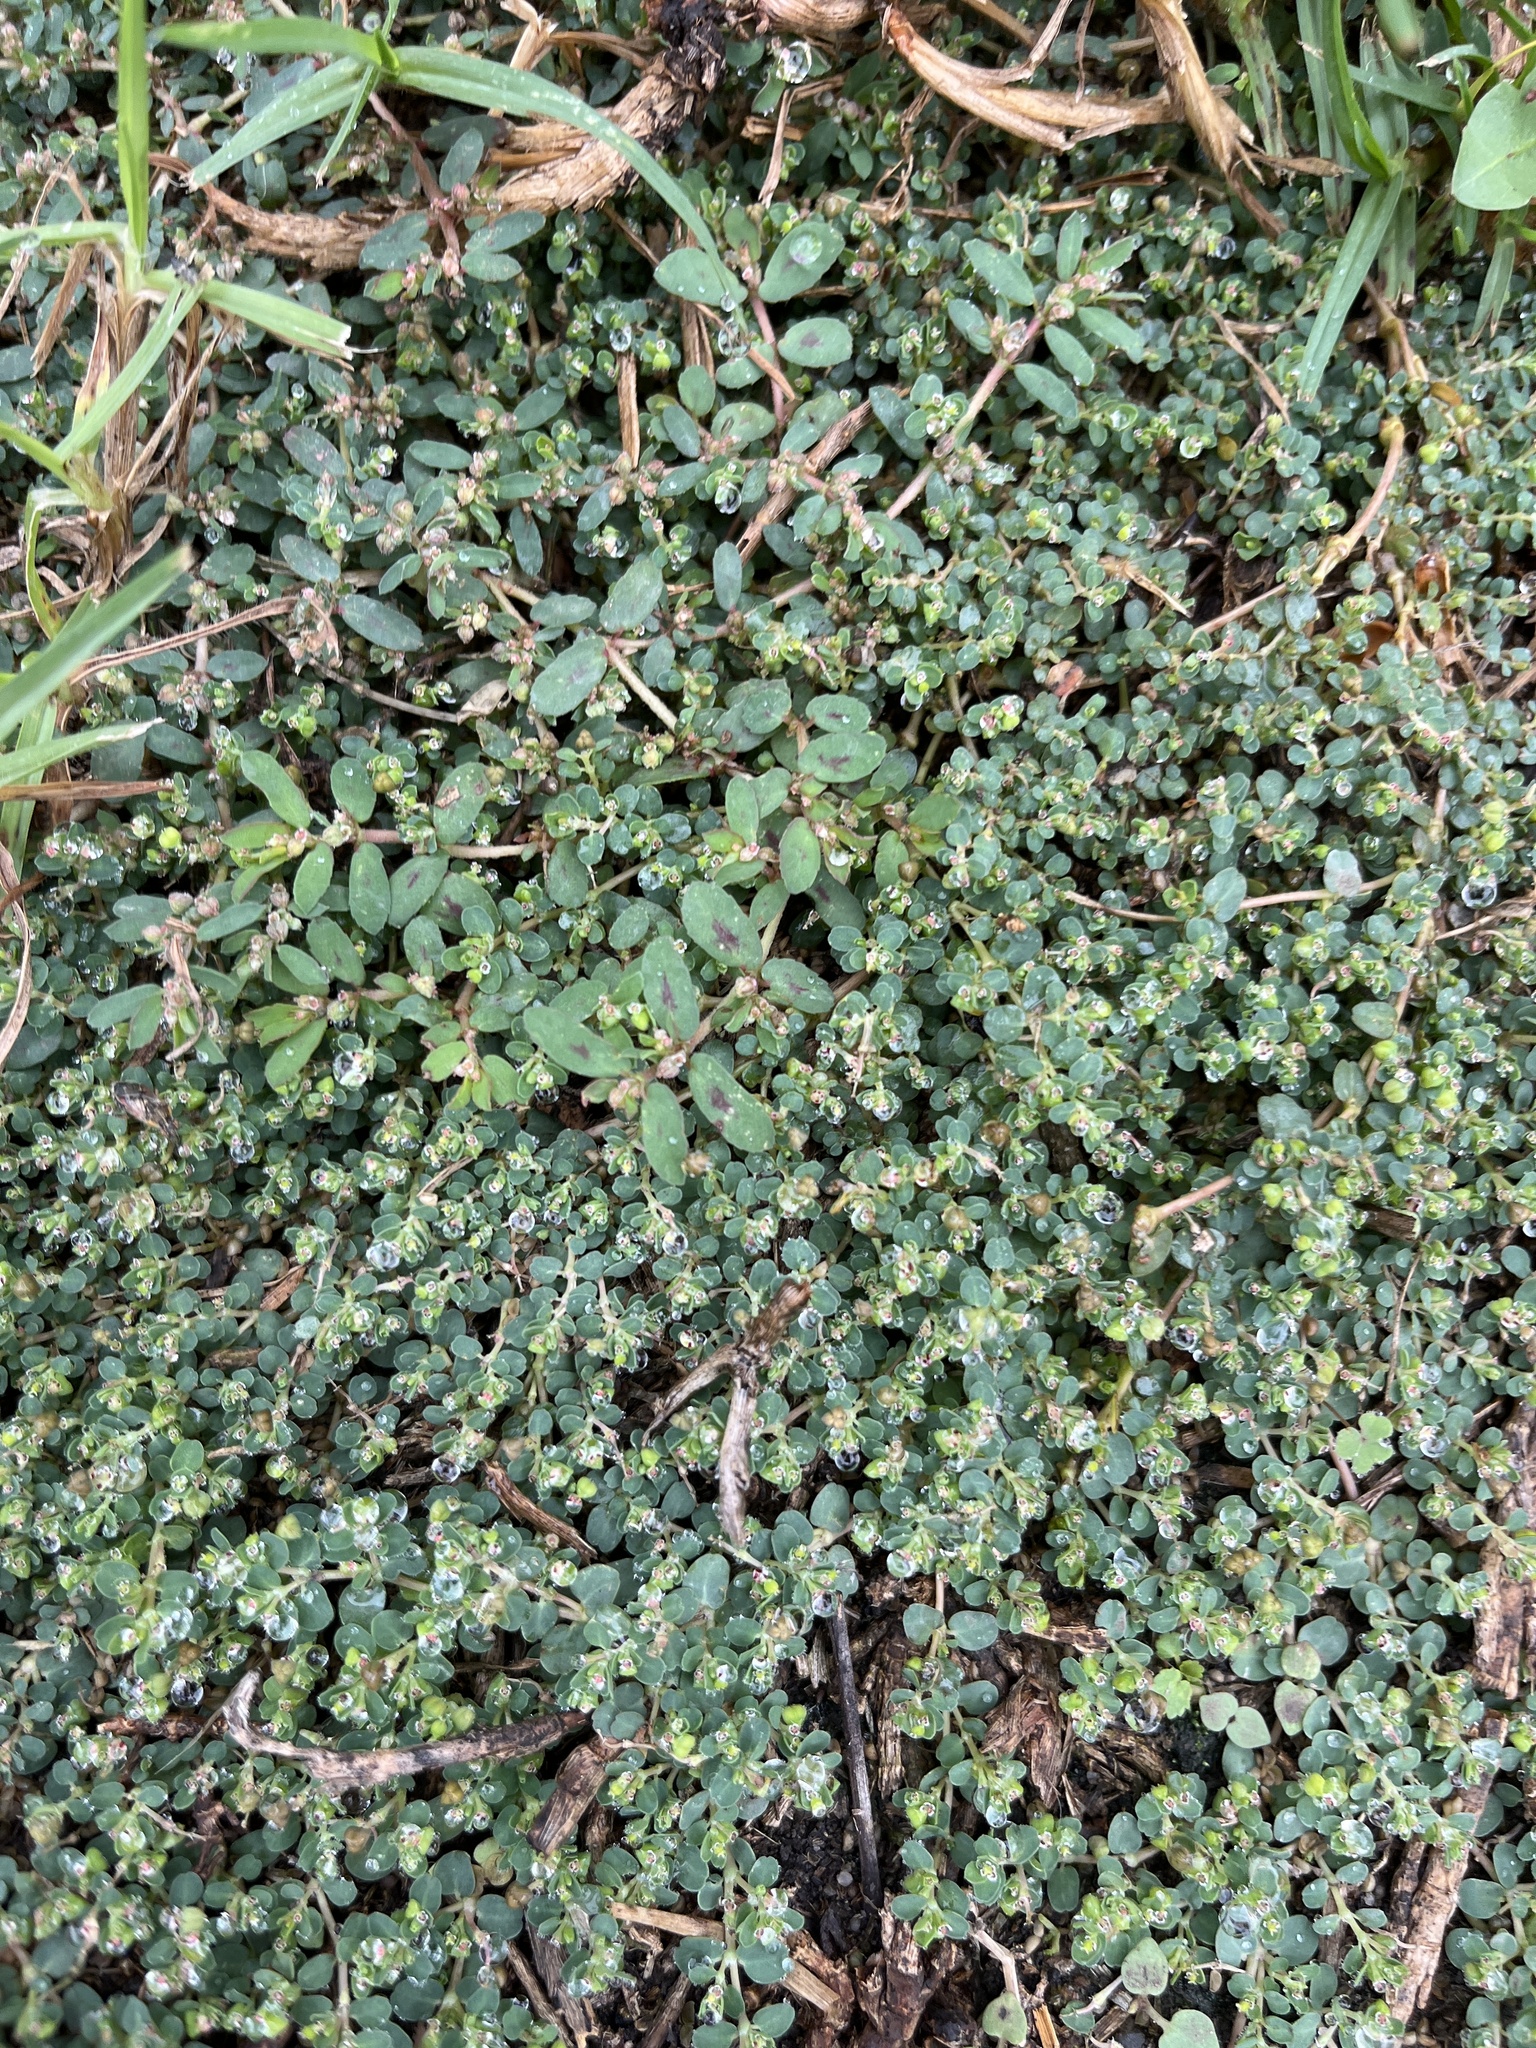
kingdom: Plantae
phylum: Tracheophyta
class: Magnoliopsida
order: Malpighiales
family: Euphorbiaceae
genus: Euphorbia
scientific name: Euphorbia serpens
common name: Matted sandmat
